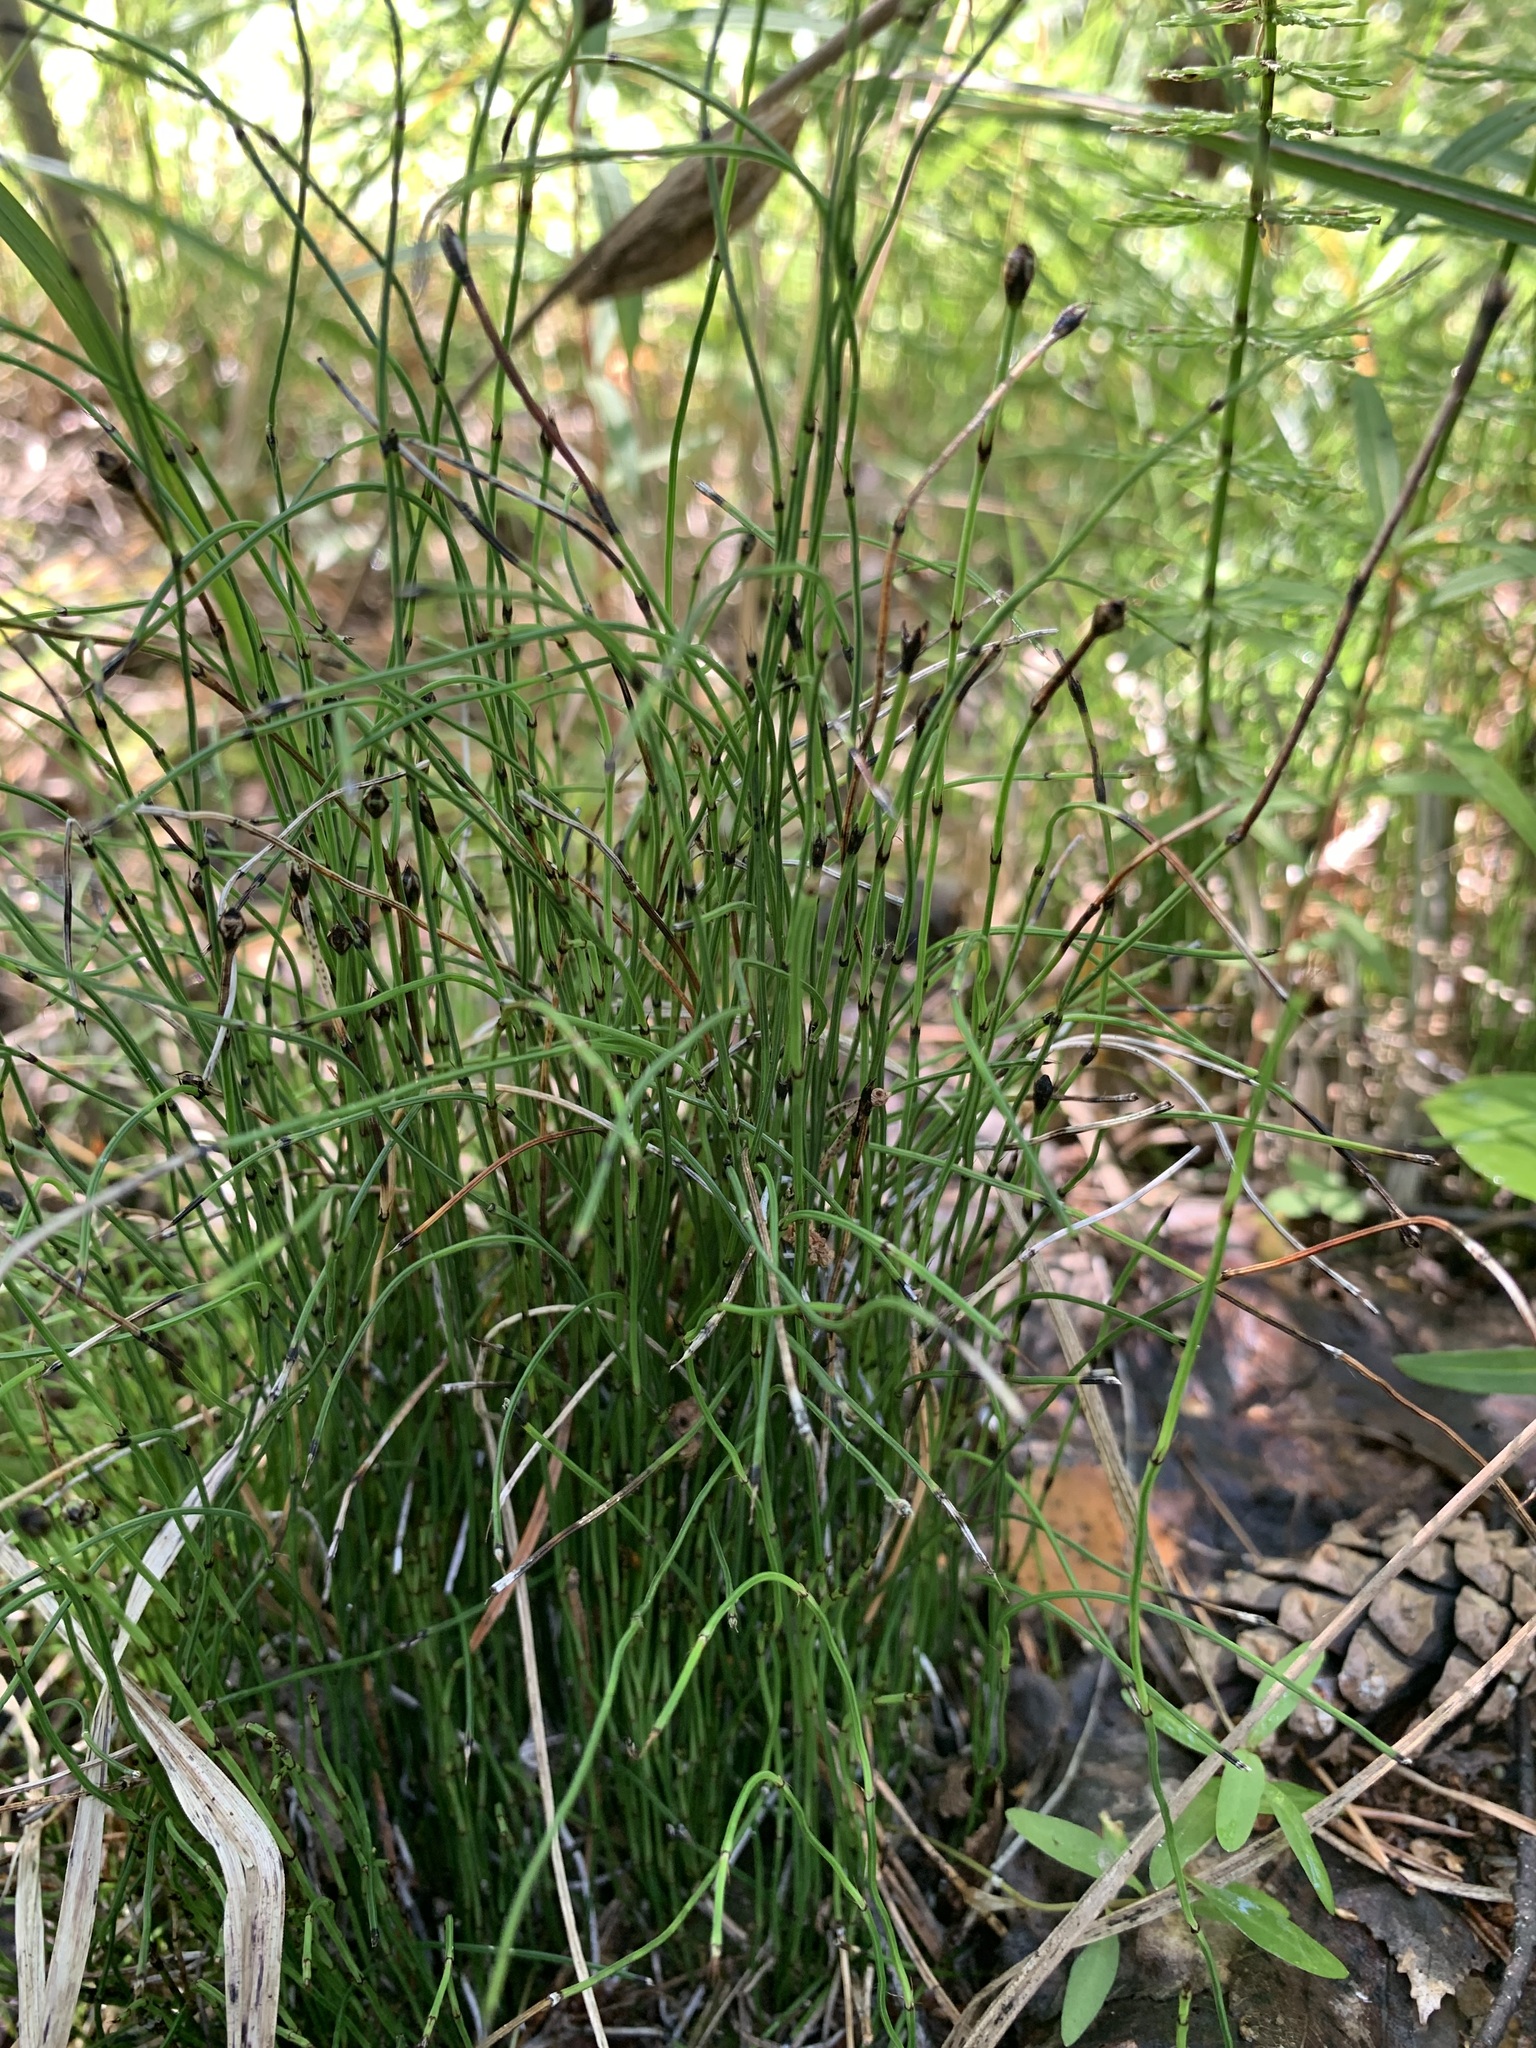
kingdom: Plantae
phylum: Tracheophyta
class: Polypodiopsida
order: Equisetales
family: Equisetaceae
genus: Equisetum
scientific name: Equisetum scirpoides
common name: Delicate horsetail
